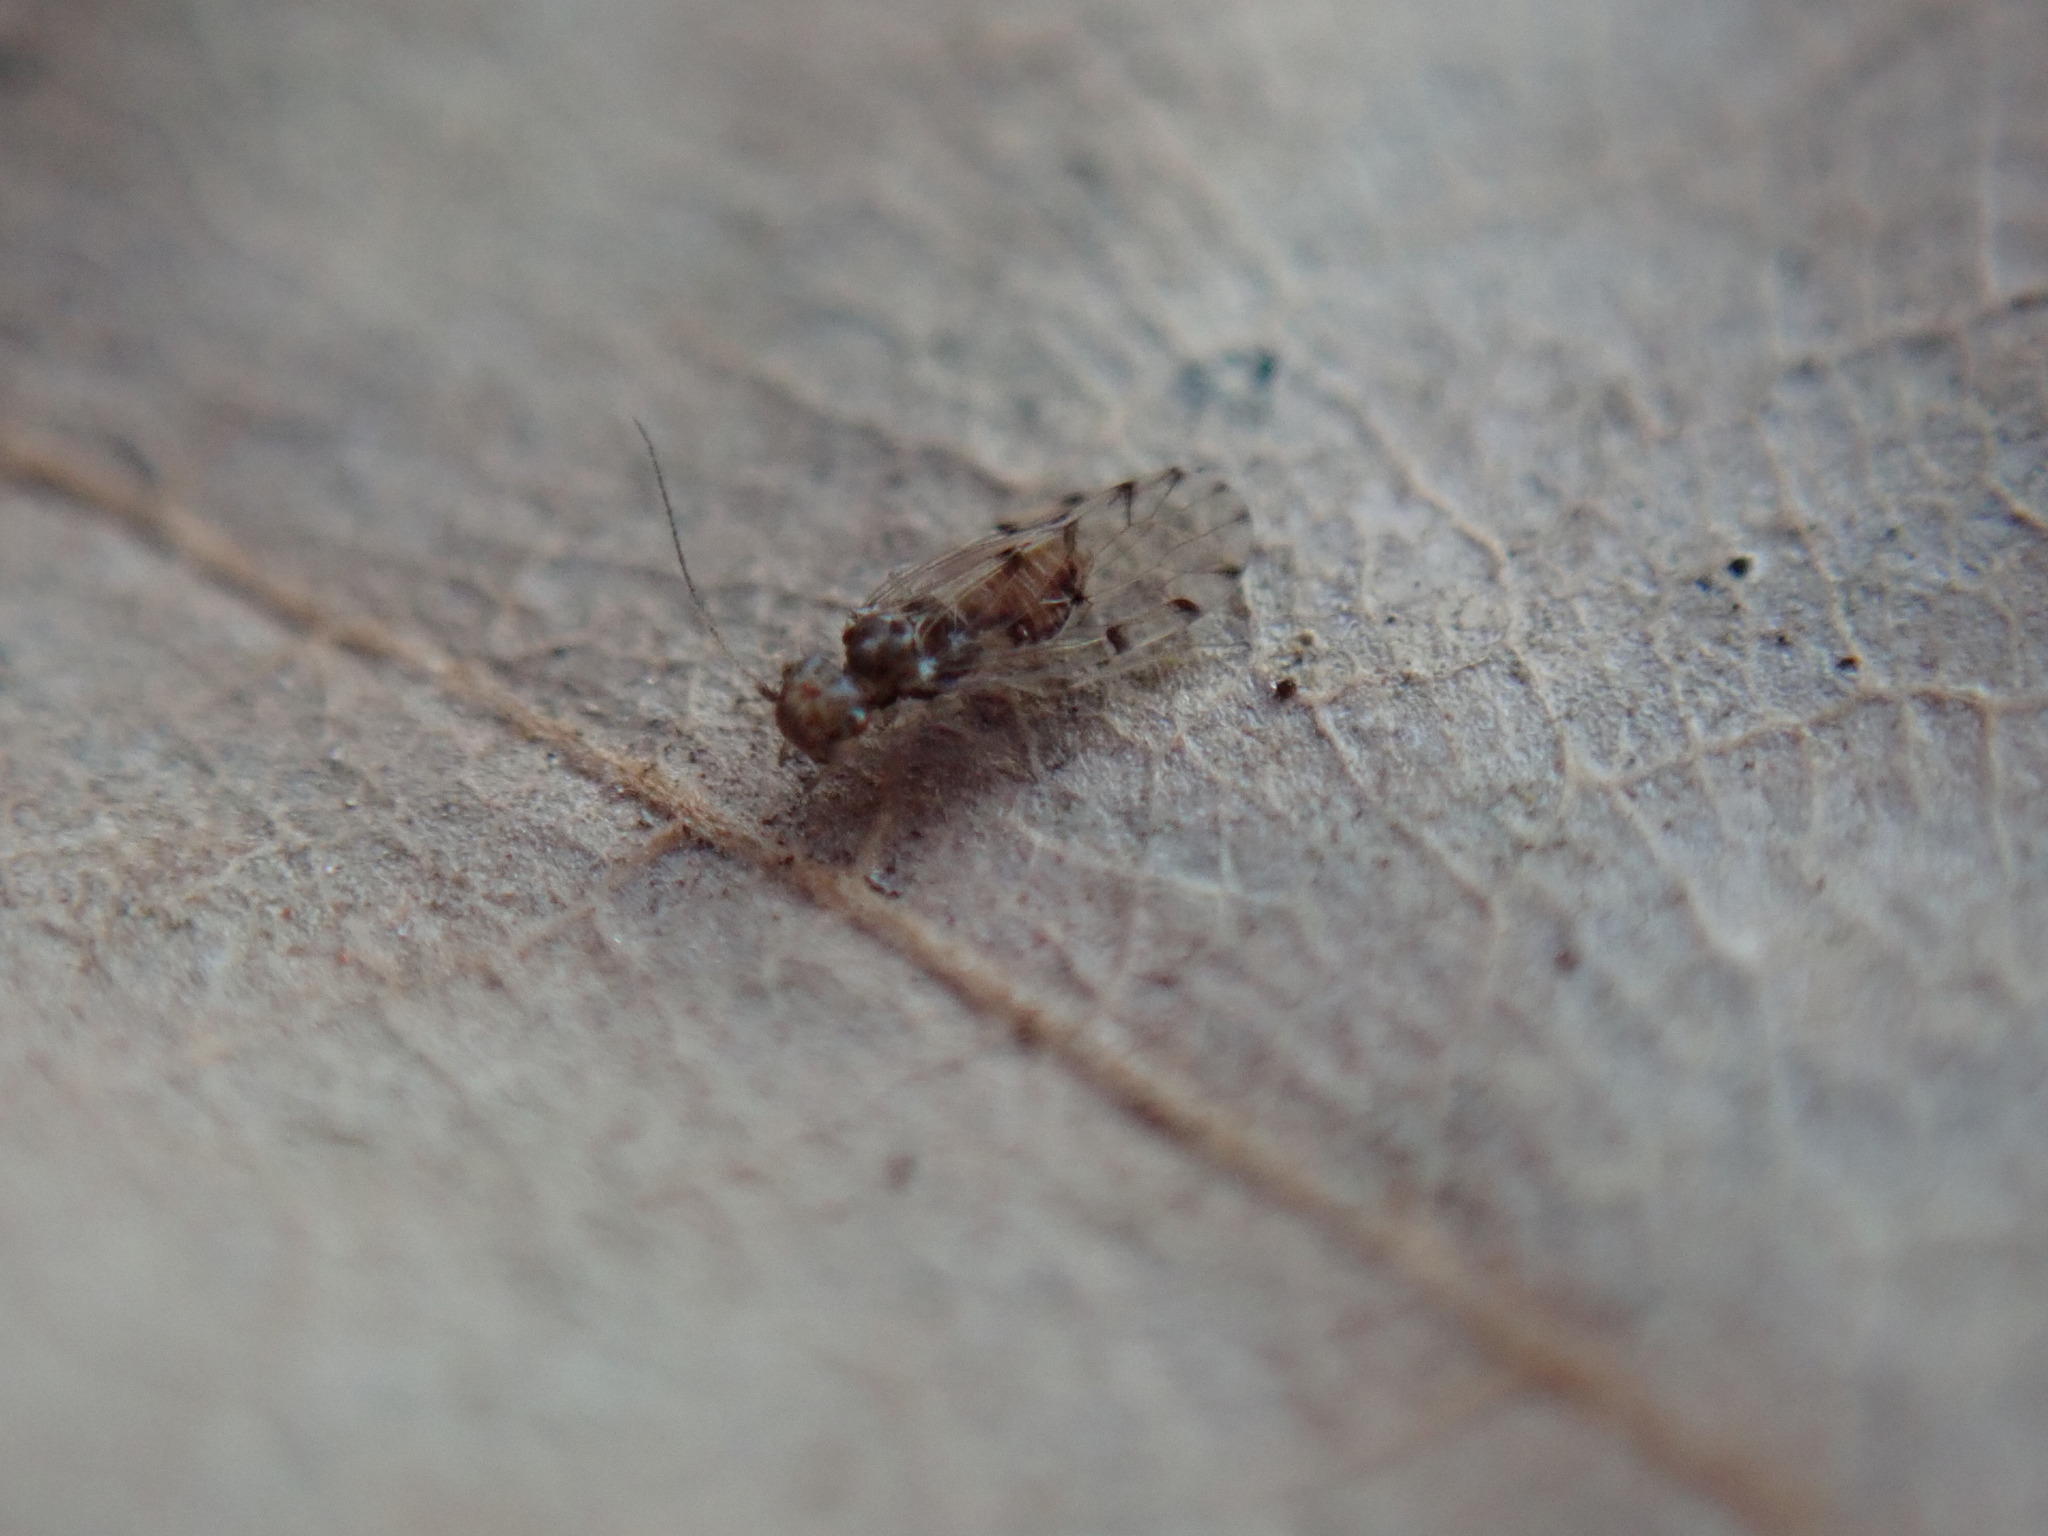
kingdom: Animalia
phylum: Arthropoda
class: Insecta
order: Psocodea
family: Ectopsocidae
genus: Ectopsocus
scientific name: Ectopsocus petersi
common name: Medium-sized bark louse
